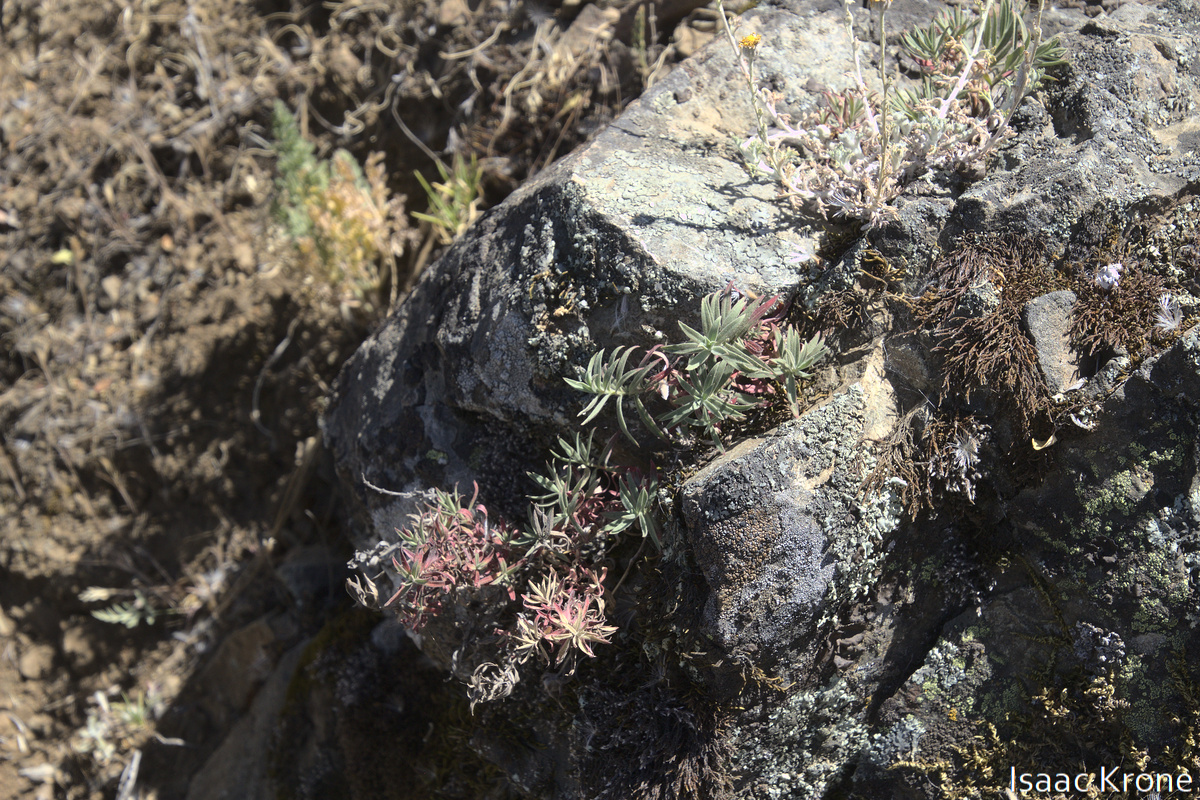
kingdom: Plantae
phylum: Tracheophyta
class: Magnoliopsida
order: Myrtales
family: Onagraceae
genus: Epilobium
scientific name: Epilobium canum
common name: California-fuchsia
